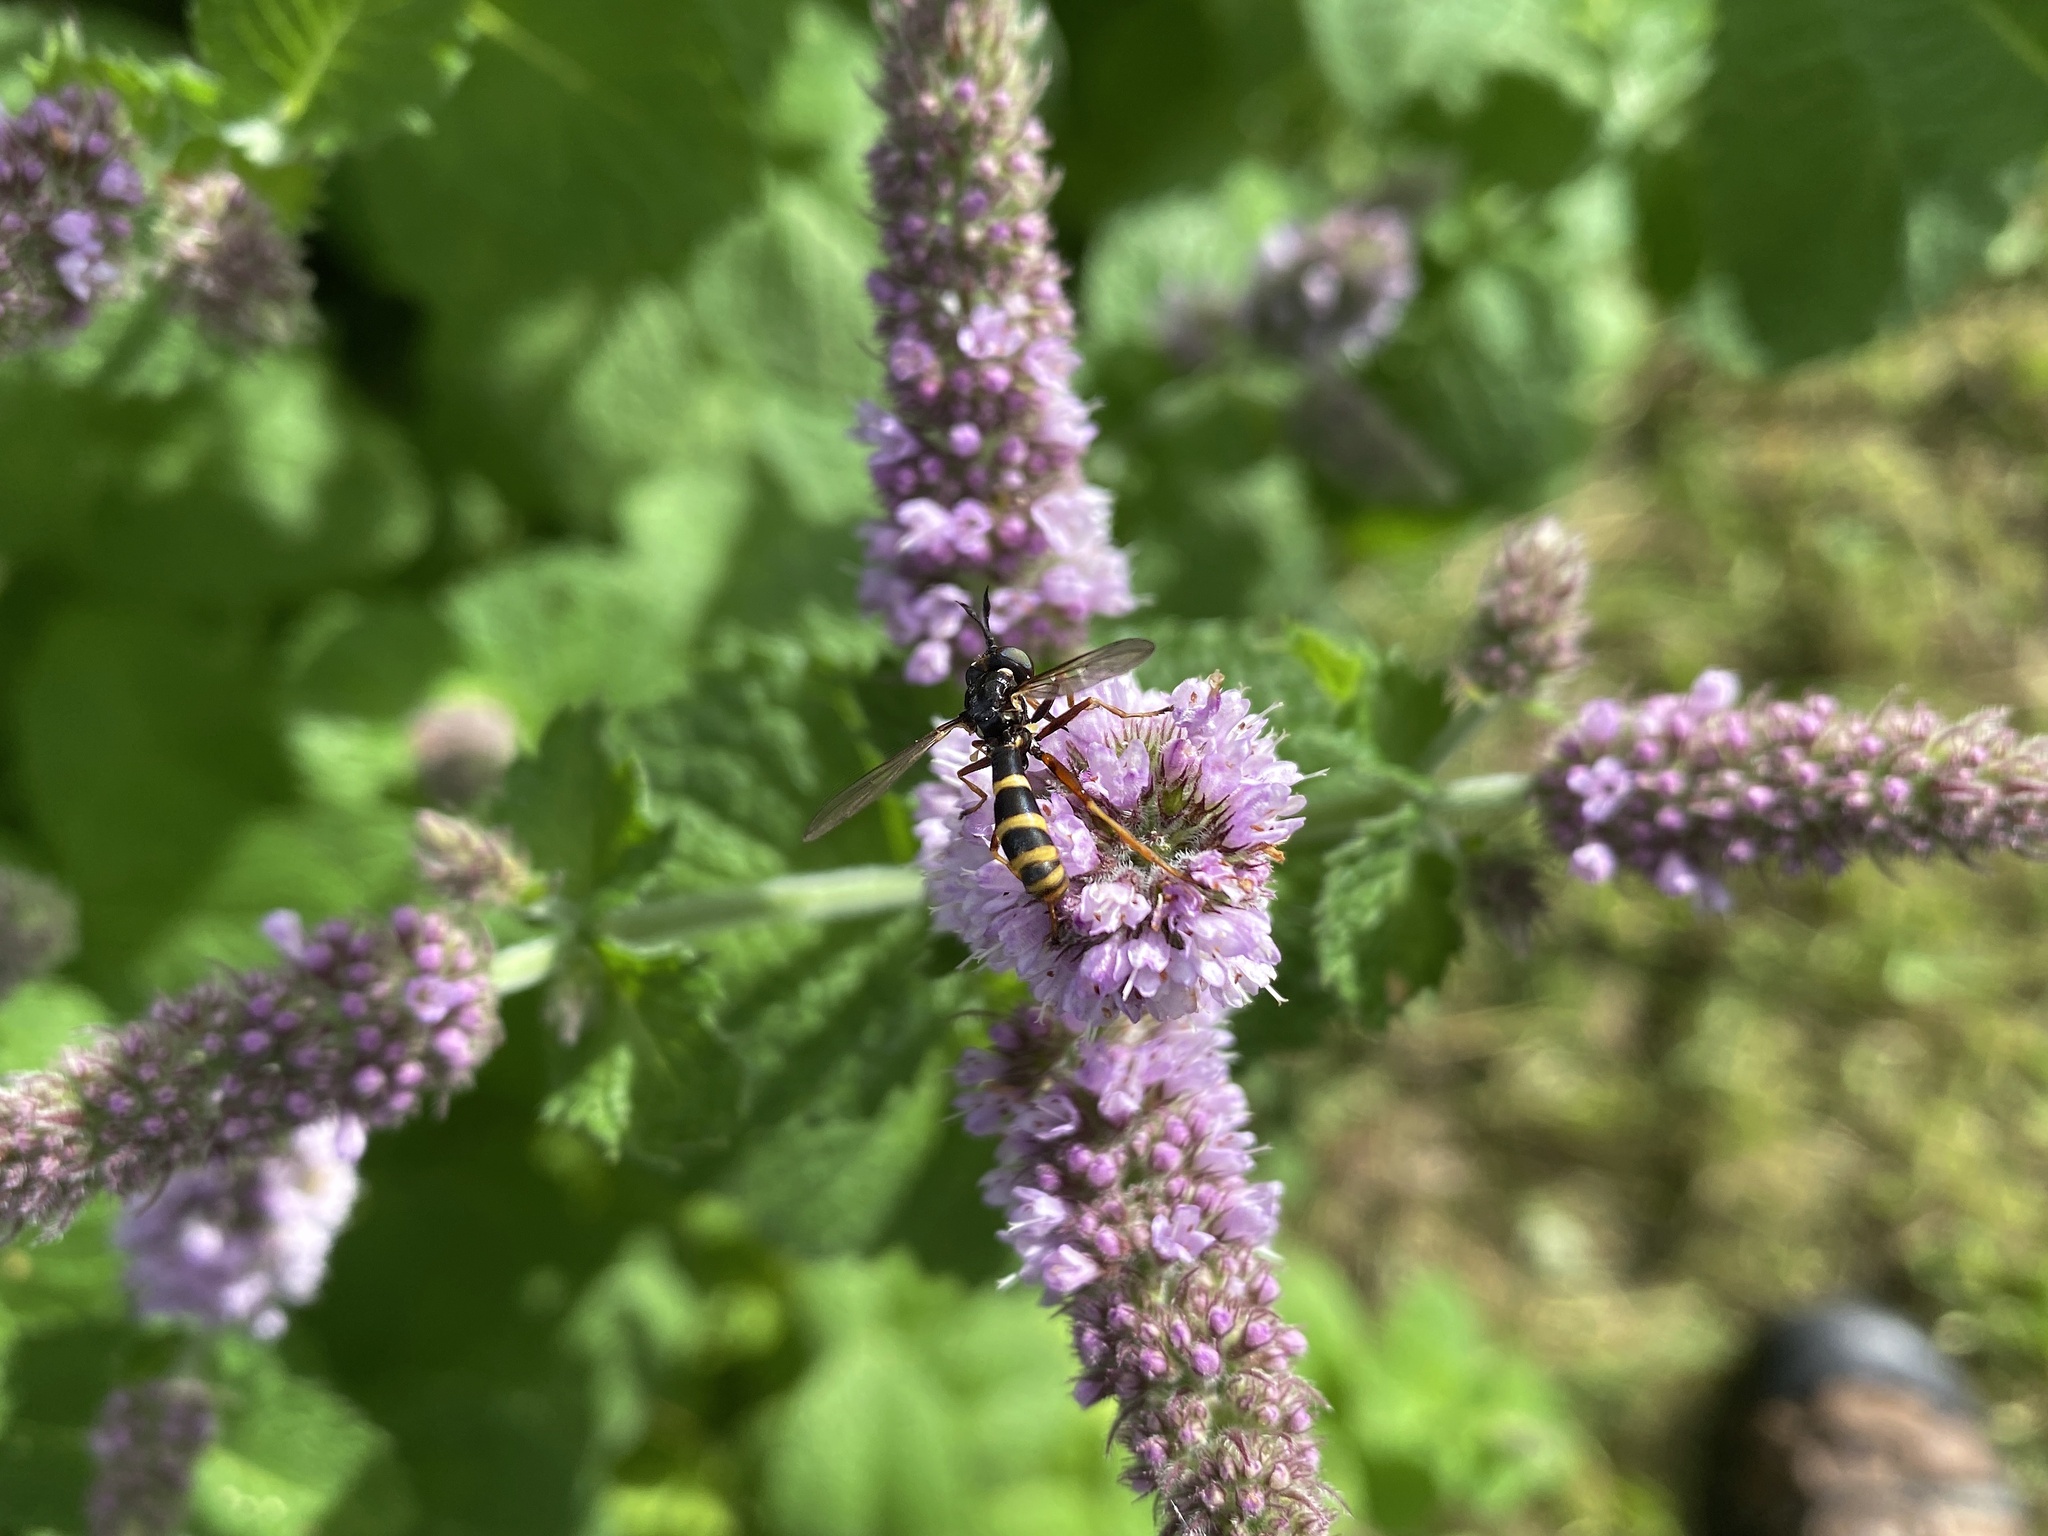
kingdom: Animalia
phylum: Arthropoda
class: Insecta
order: Diptera
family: Conopidae
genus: Conops
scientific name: Conops quadrifasciatus
